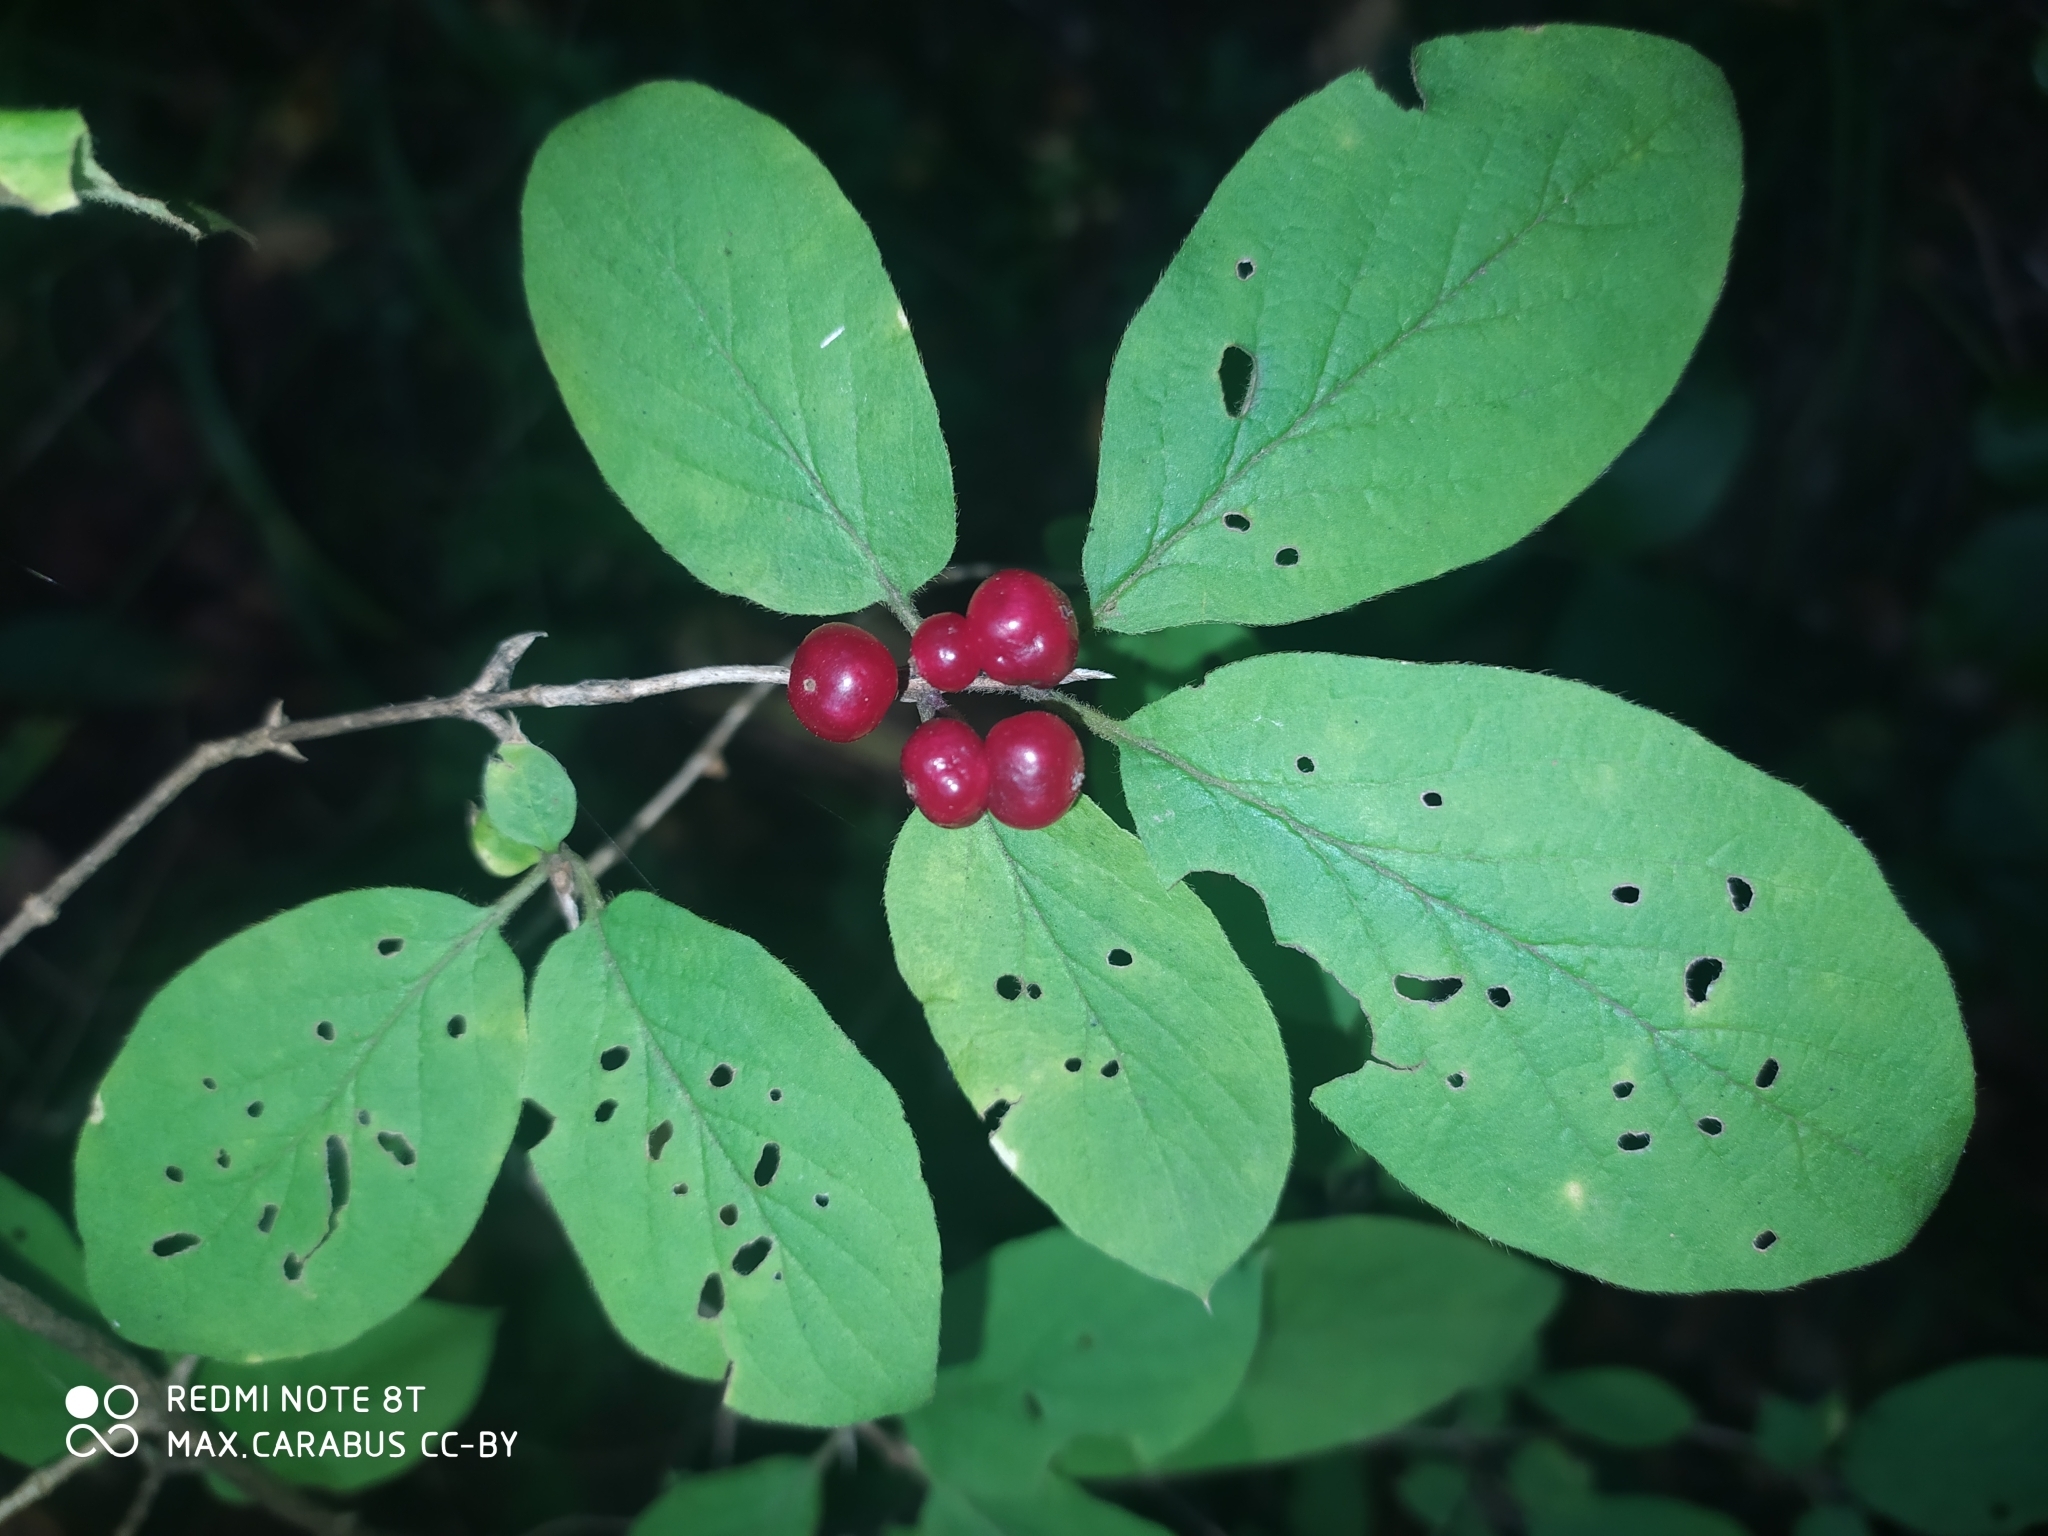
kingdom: Plantae
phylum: Tracheophyta
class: Magnoliopsida
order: Dipsacales
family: Caprifoliaceae
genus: Lonicera
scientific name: Lonicera xylosteum
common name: Fly honeysuckle
